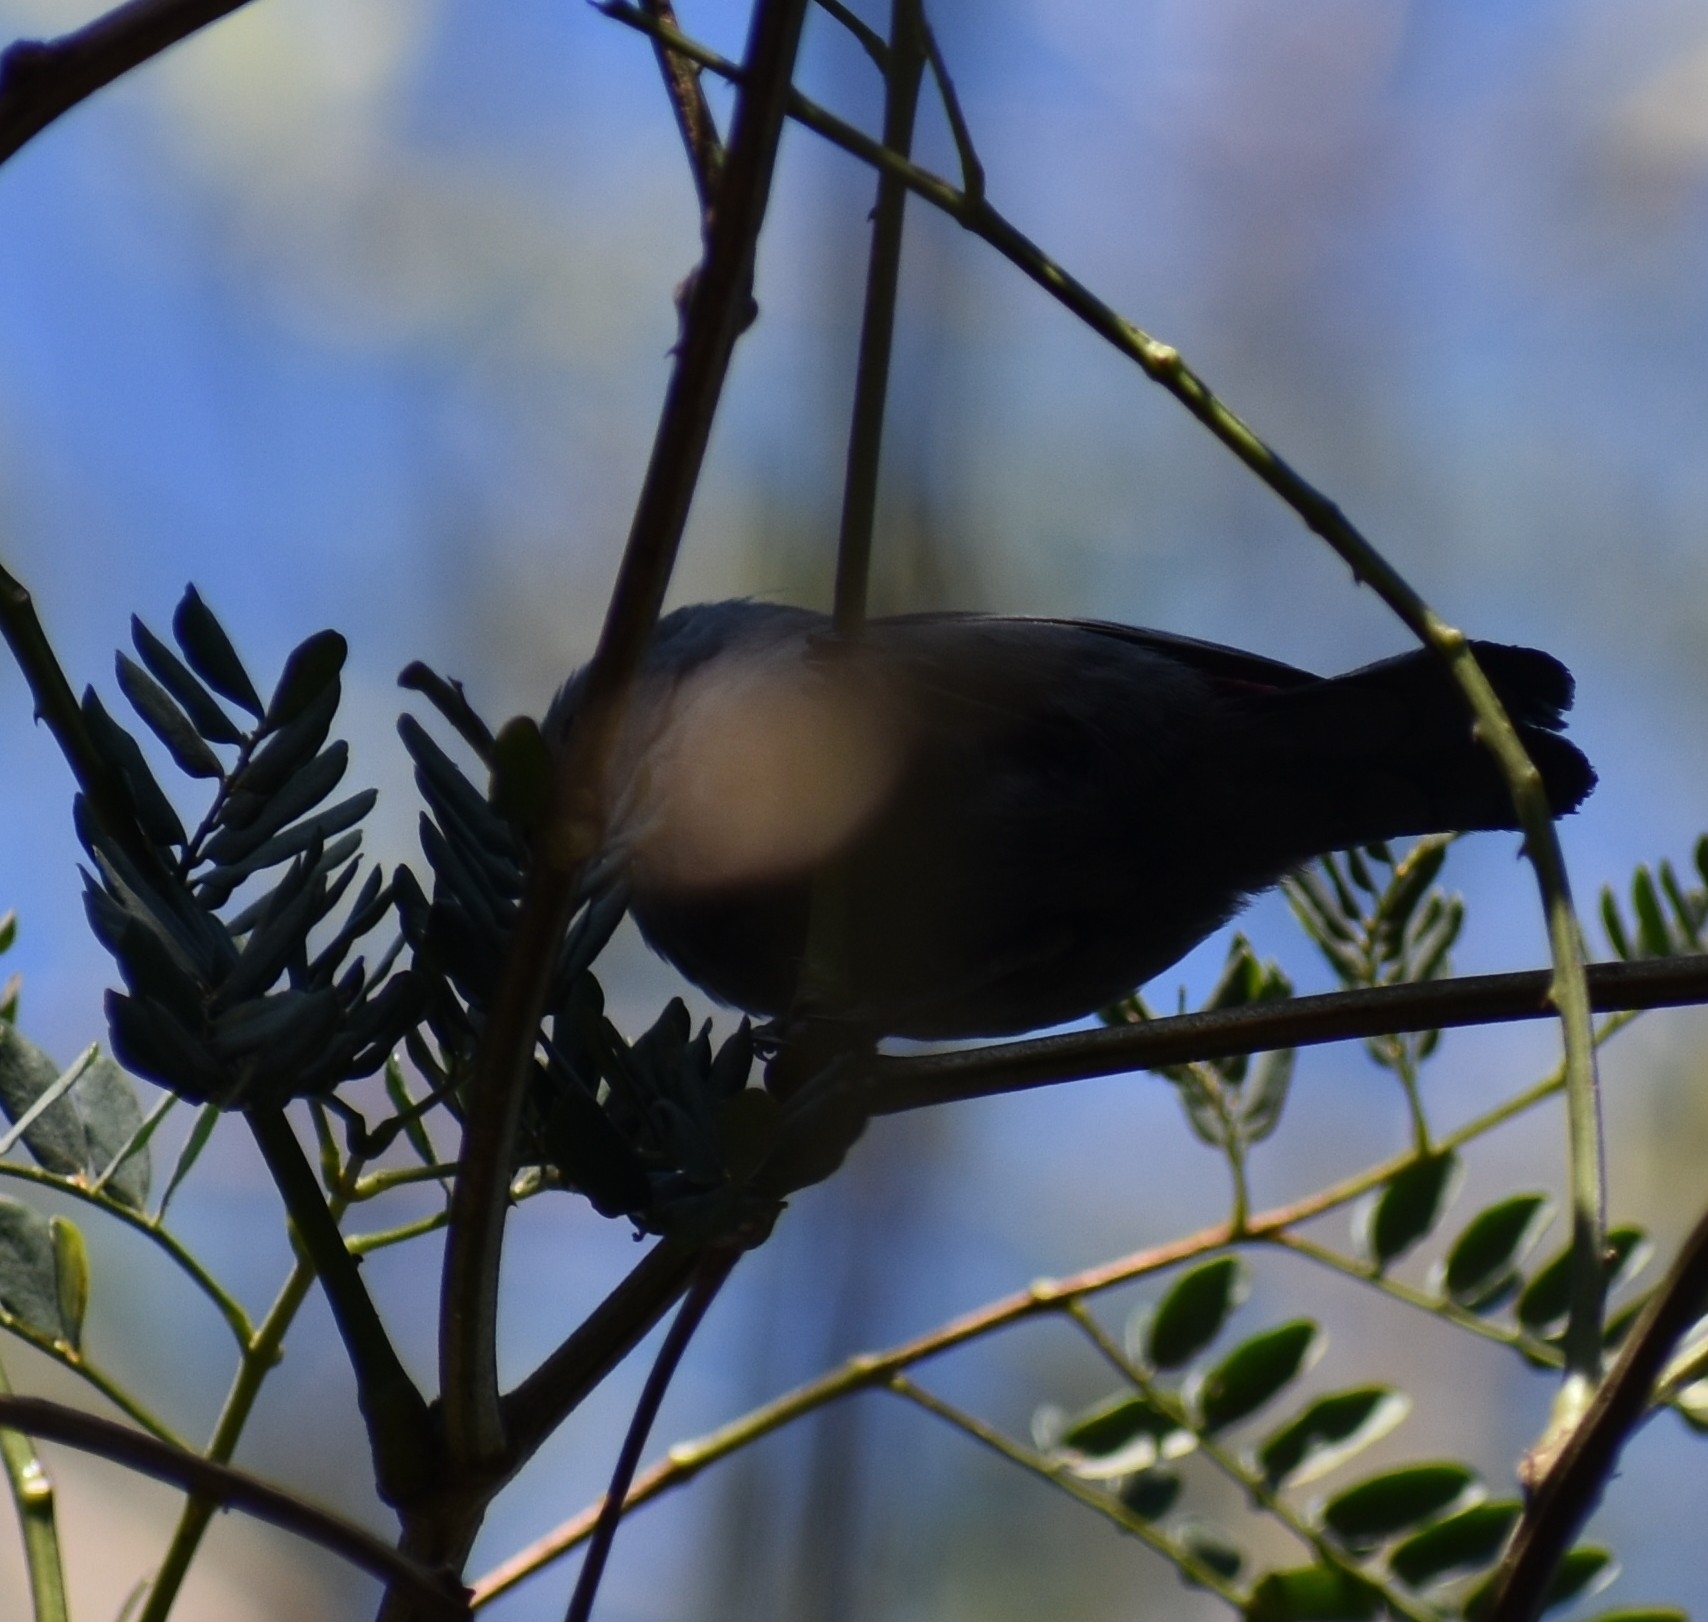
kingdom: Animalia
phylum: Chordata
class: Aves
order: Passeriformes
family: Estrildidae
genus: Estrilda
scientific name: Estrilda perreini
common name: Grey waxbill
